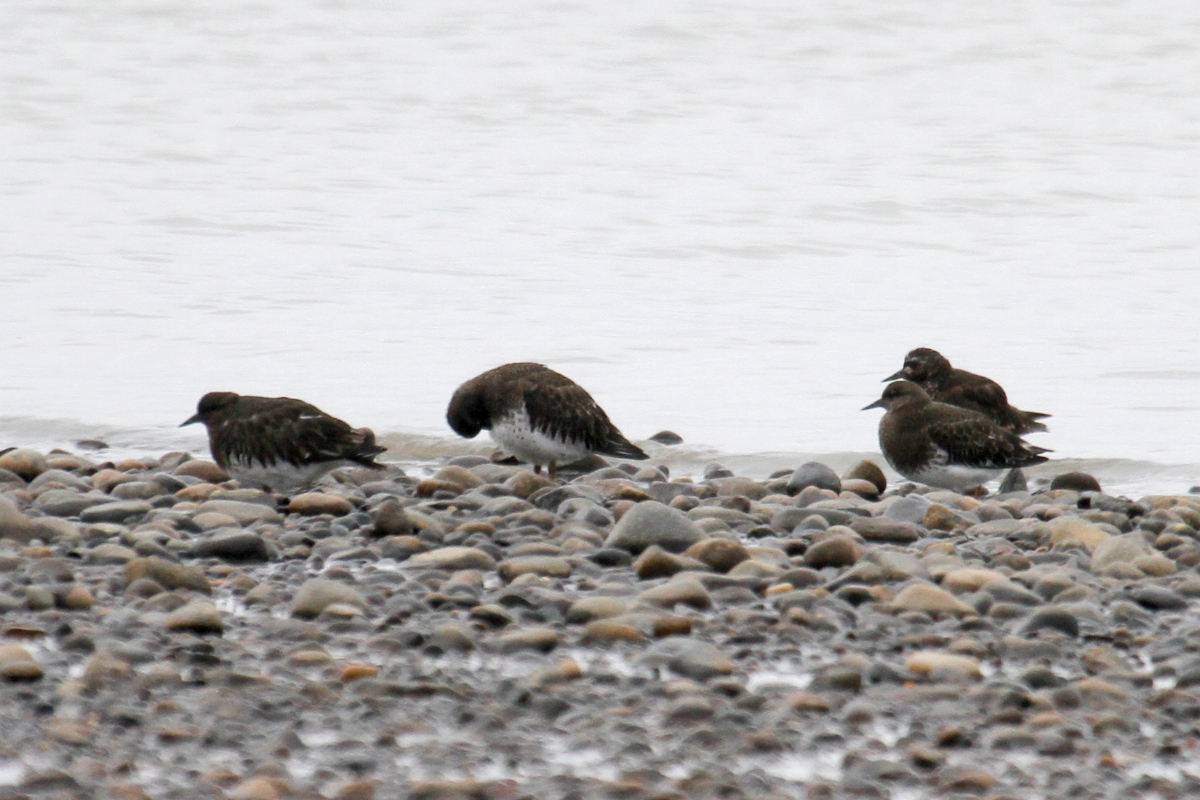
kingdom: Animalia
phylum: Chordata
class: Aves
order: Charadriiformes
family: Scolopacidae
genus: Arenaria
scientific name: Arenaria melanocephala
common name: Black turnstone
